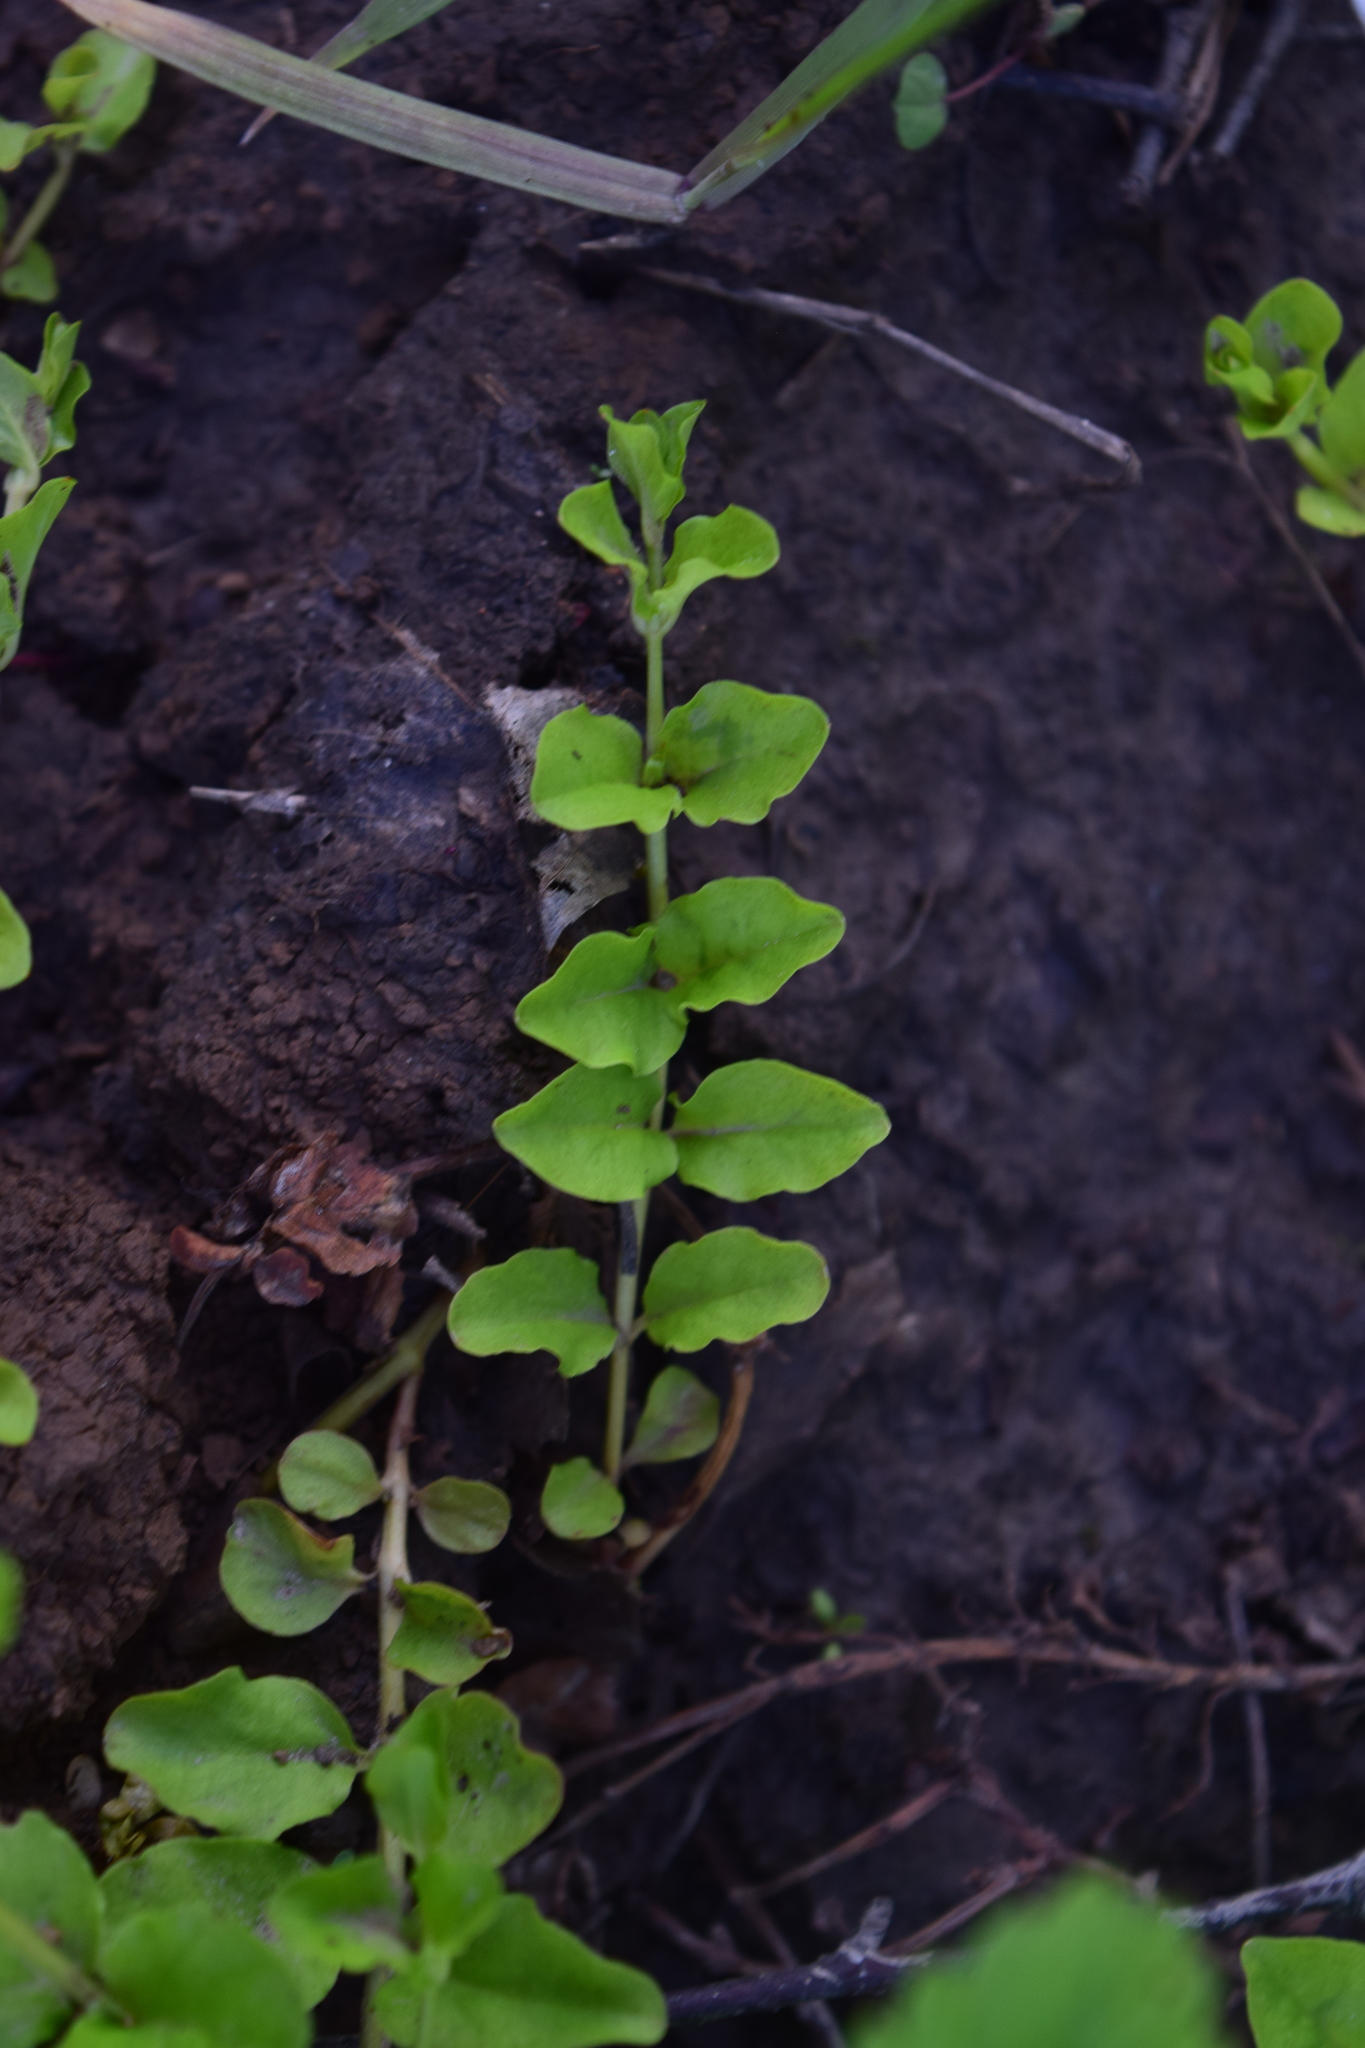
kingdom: Plantae
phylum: Tracheophyta
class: Magnoliopsida
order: Ericales
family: Primulaceae
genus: Lysimachia
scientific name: Lysimachia nummularia
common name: Moneywort
